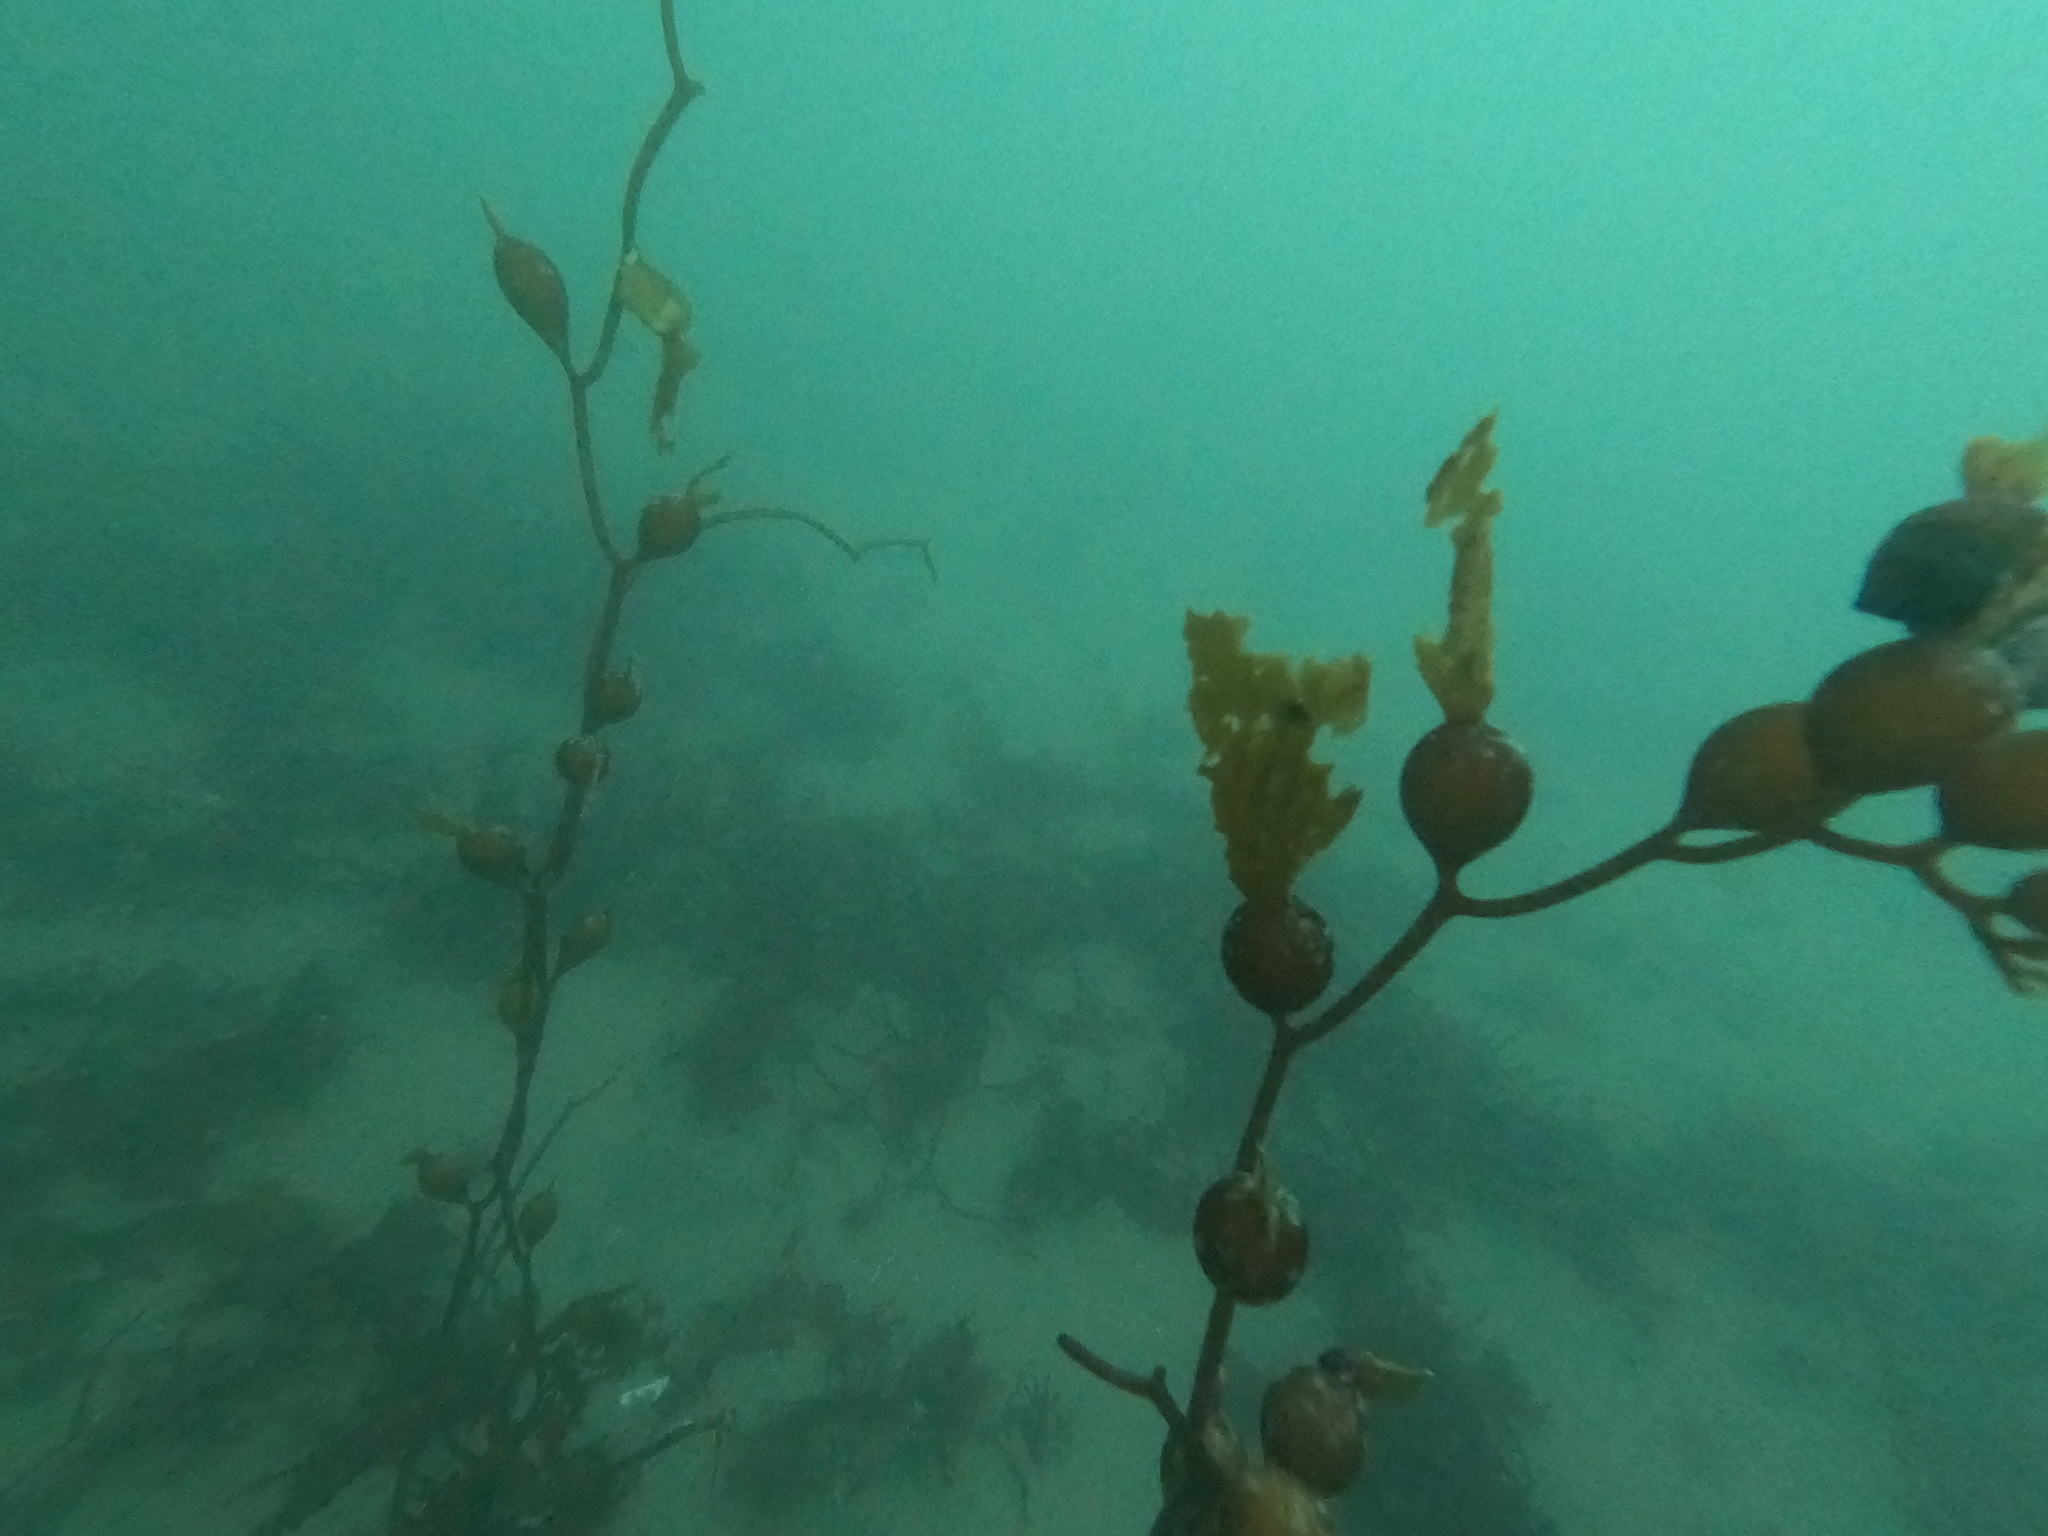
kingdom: Chromista
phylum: Ochrophyta
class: Phaeophyceae
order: Laminariales
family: Laminariaceae
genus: Macrocystis
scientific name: Macrocystis pyrifera
